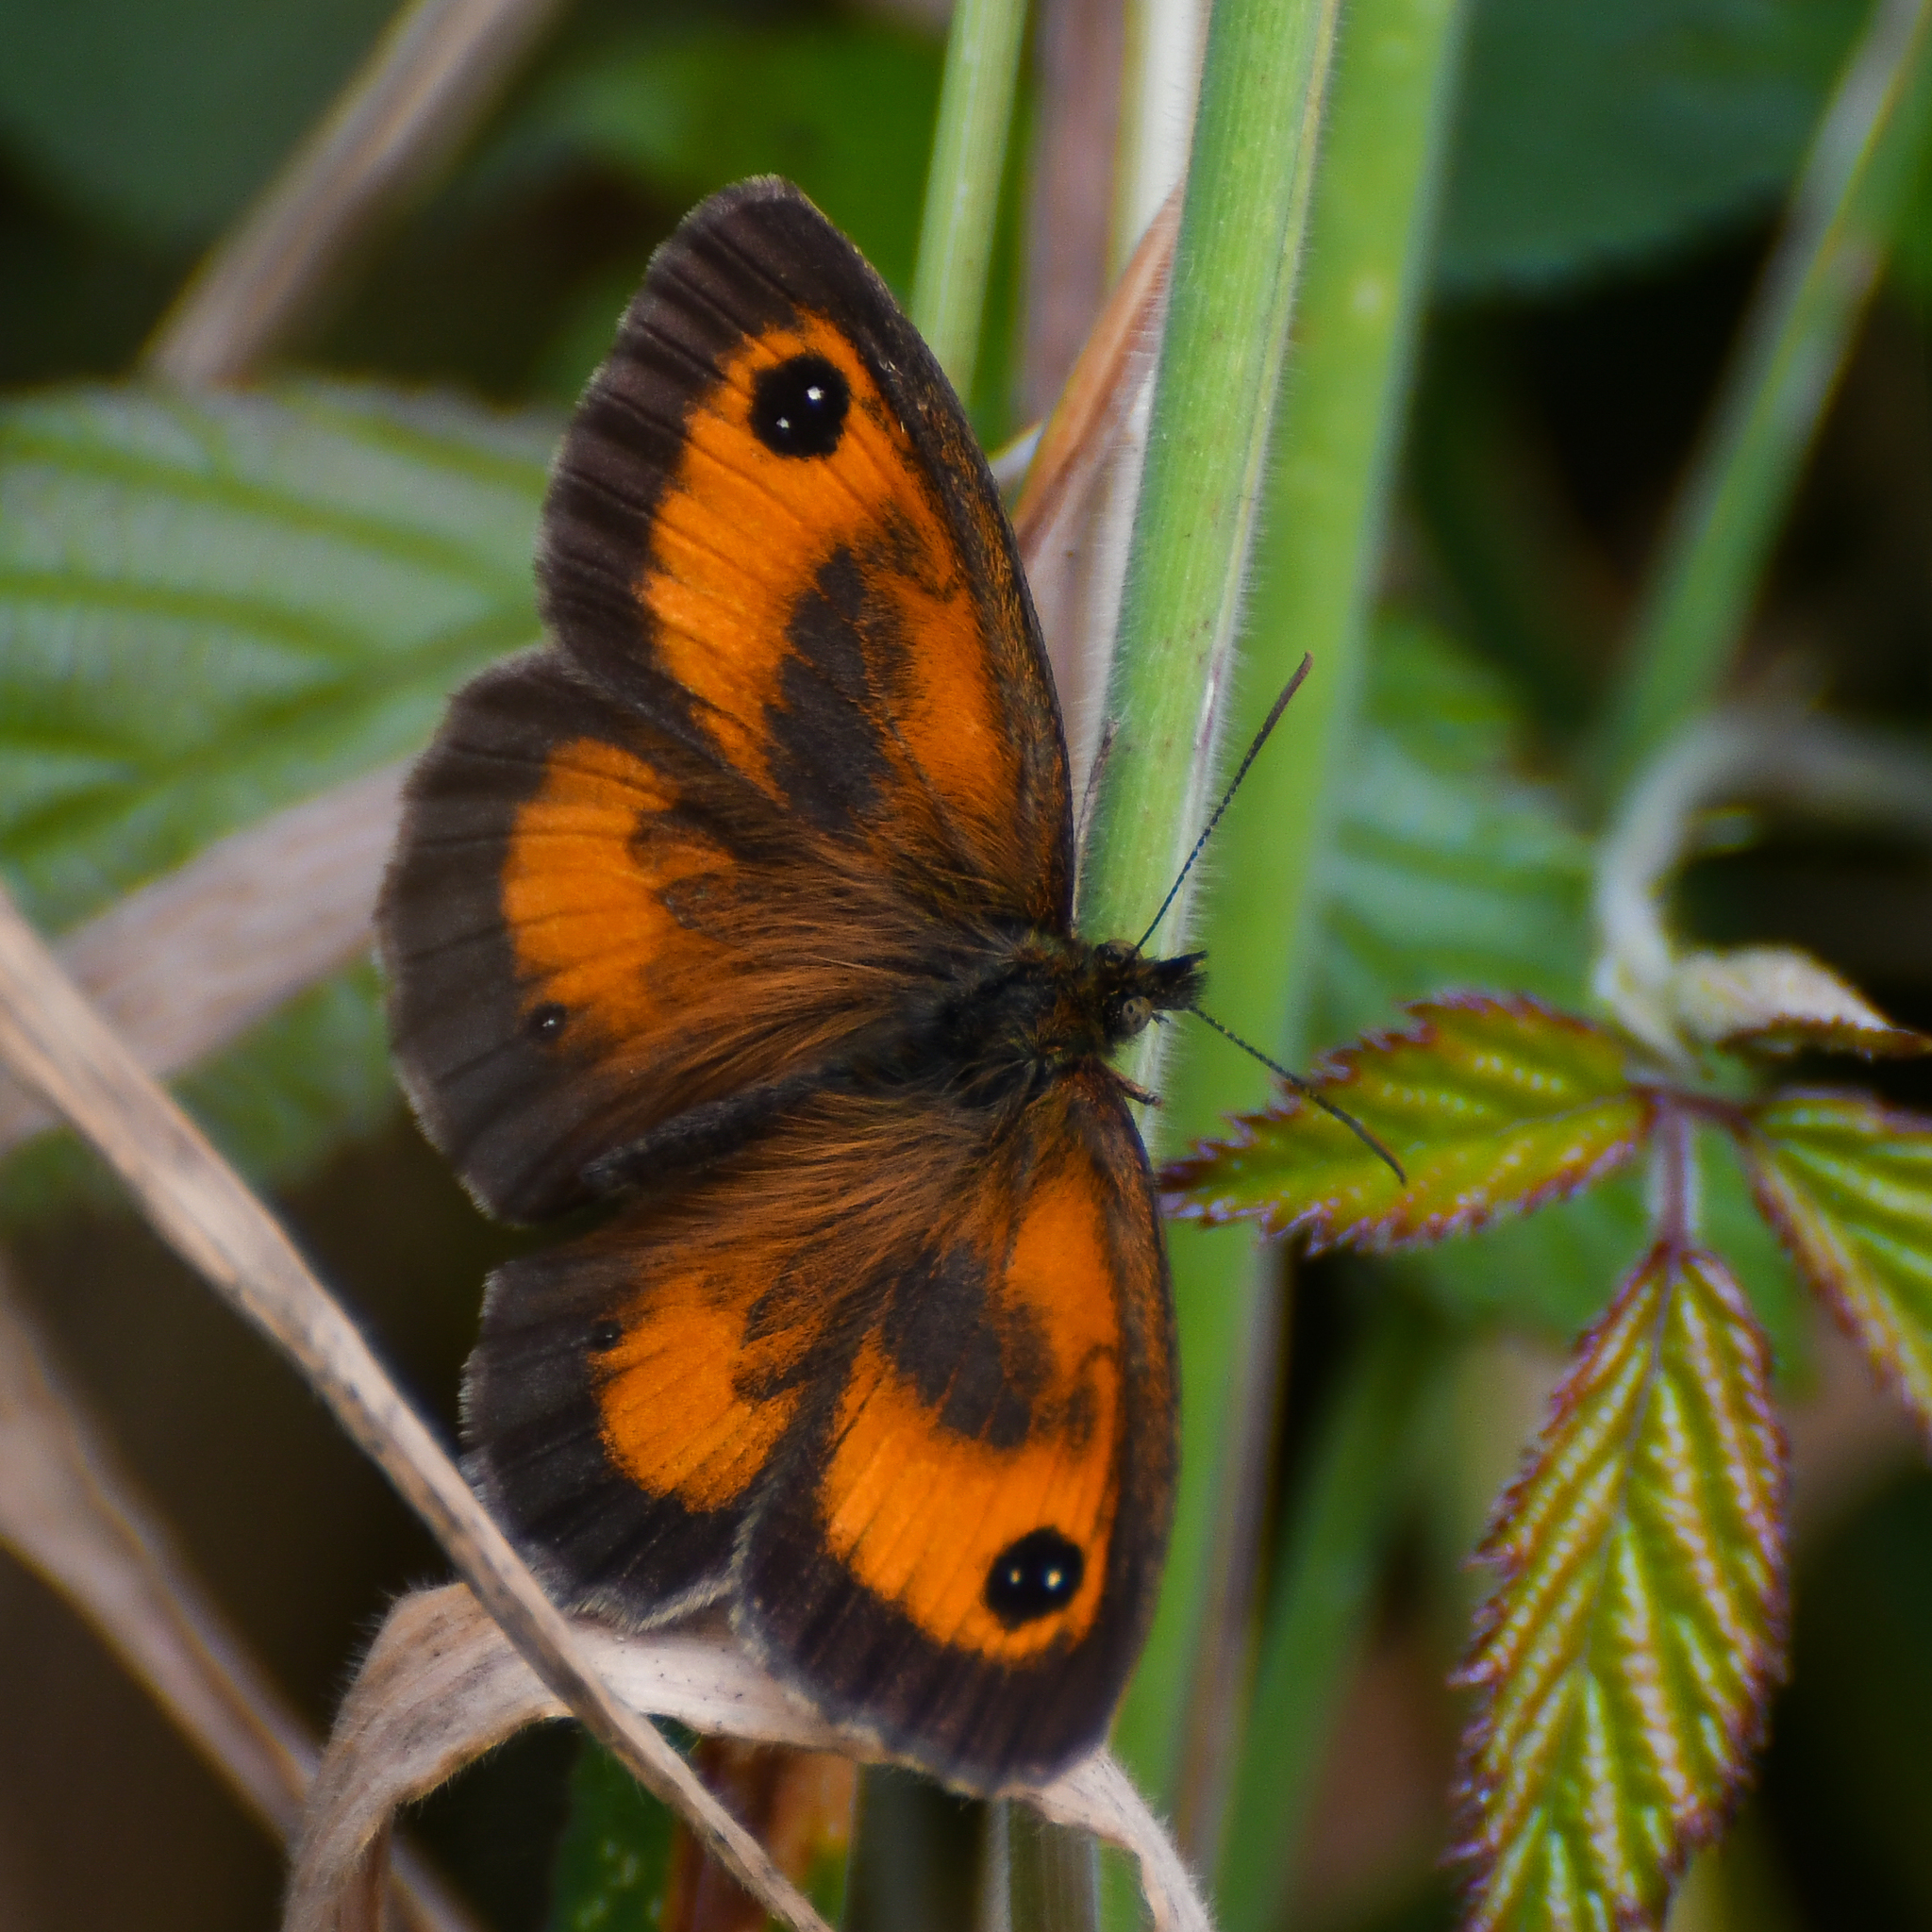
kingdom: Animalia
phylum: Arthropoda
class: Insecta
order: Lepidoptera
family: Nymphalidae
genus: Pyronia
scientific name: Pyronia tithonus
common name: Gatekeeper
